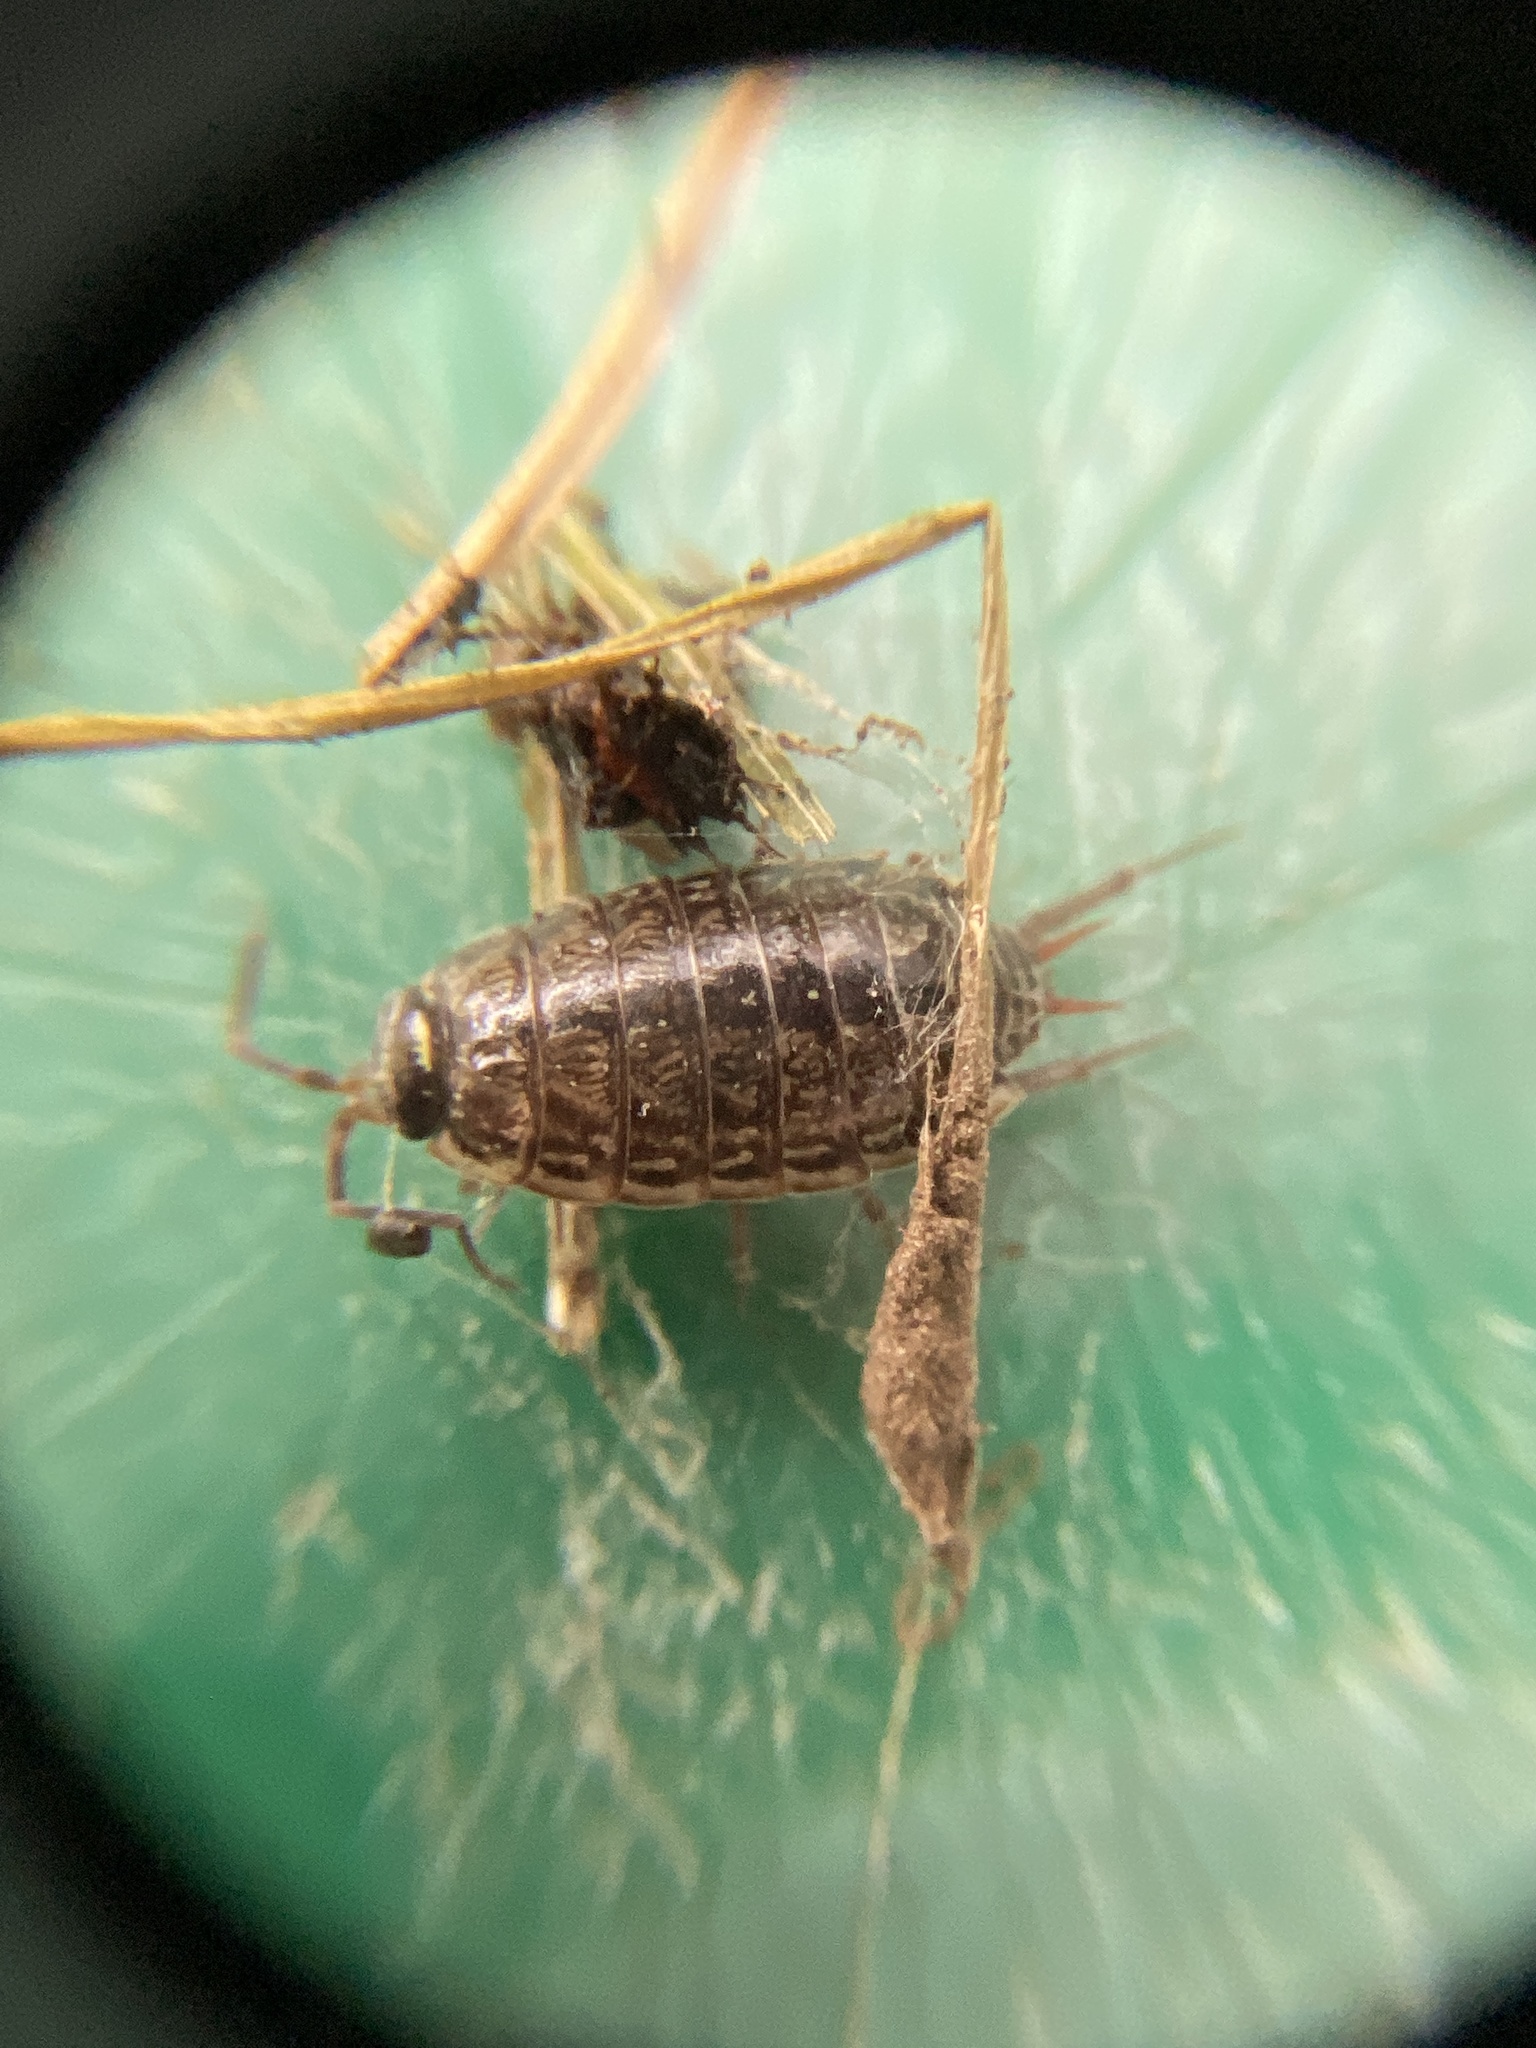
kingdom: Animalia
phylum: Arthropoda
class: Malacostraca
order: Isopoda
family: Philosciidae
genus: Philoscia
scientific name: Philoscia muscorum
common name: Common striped woodlouse
